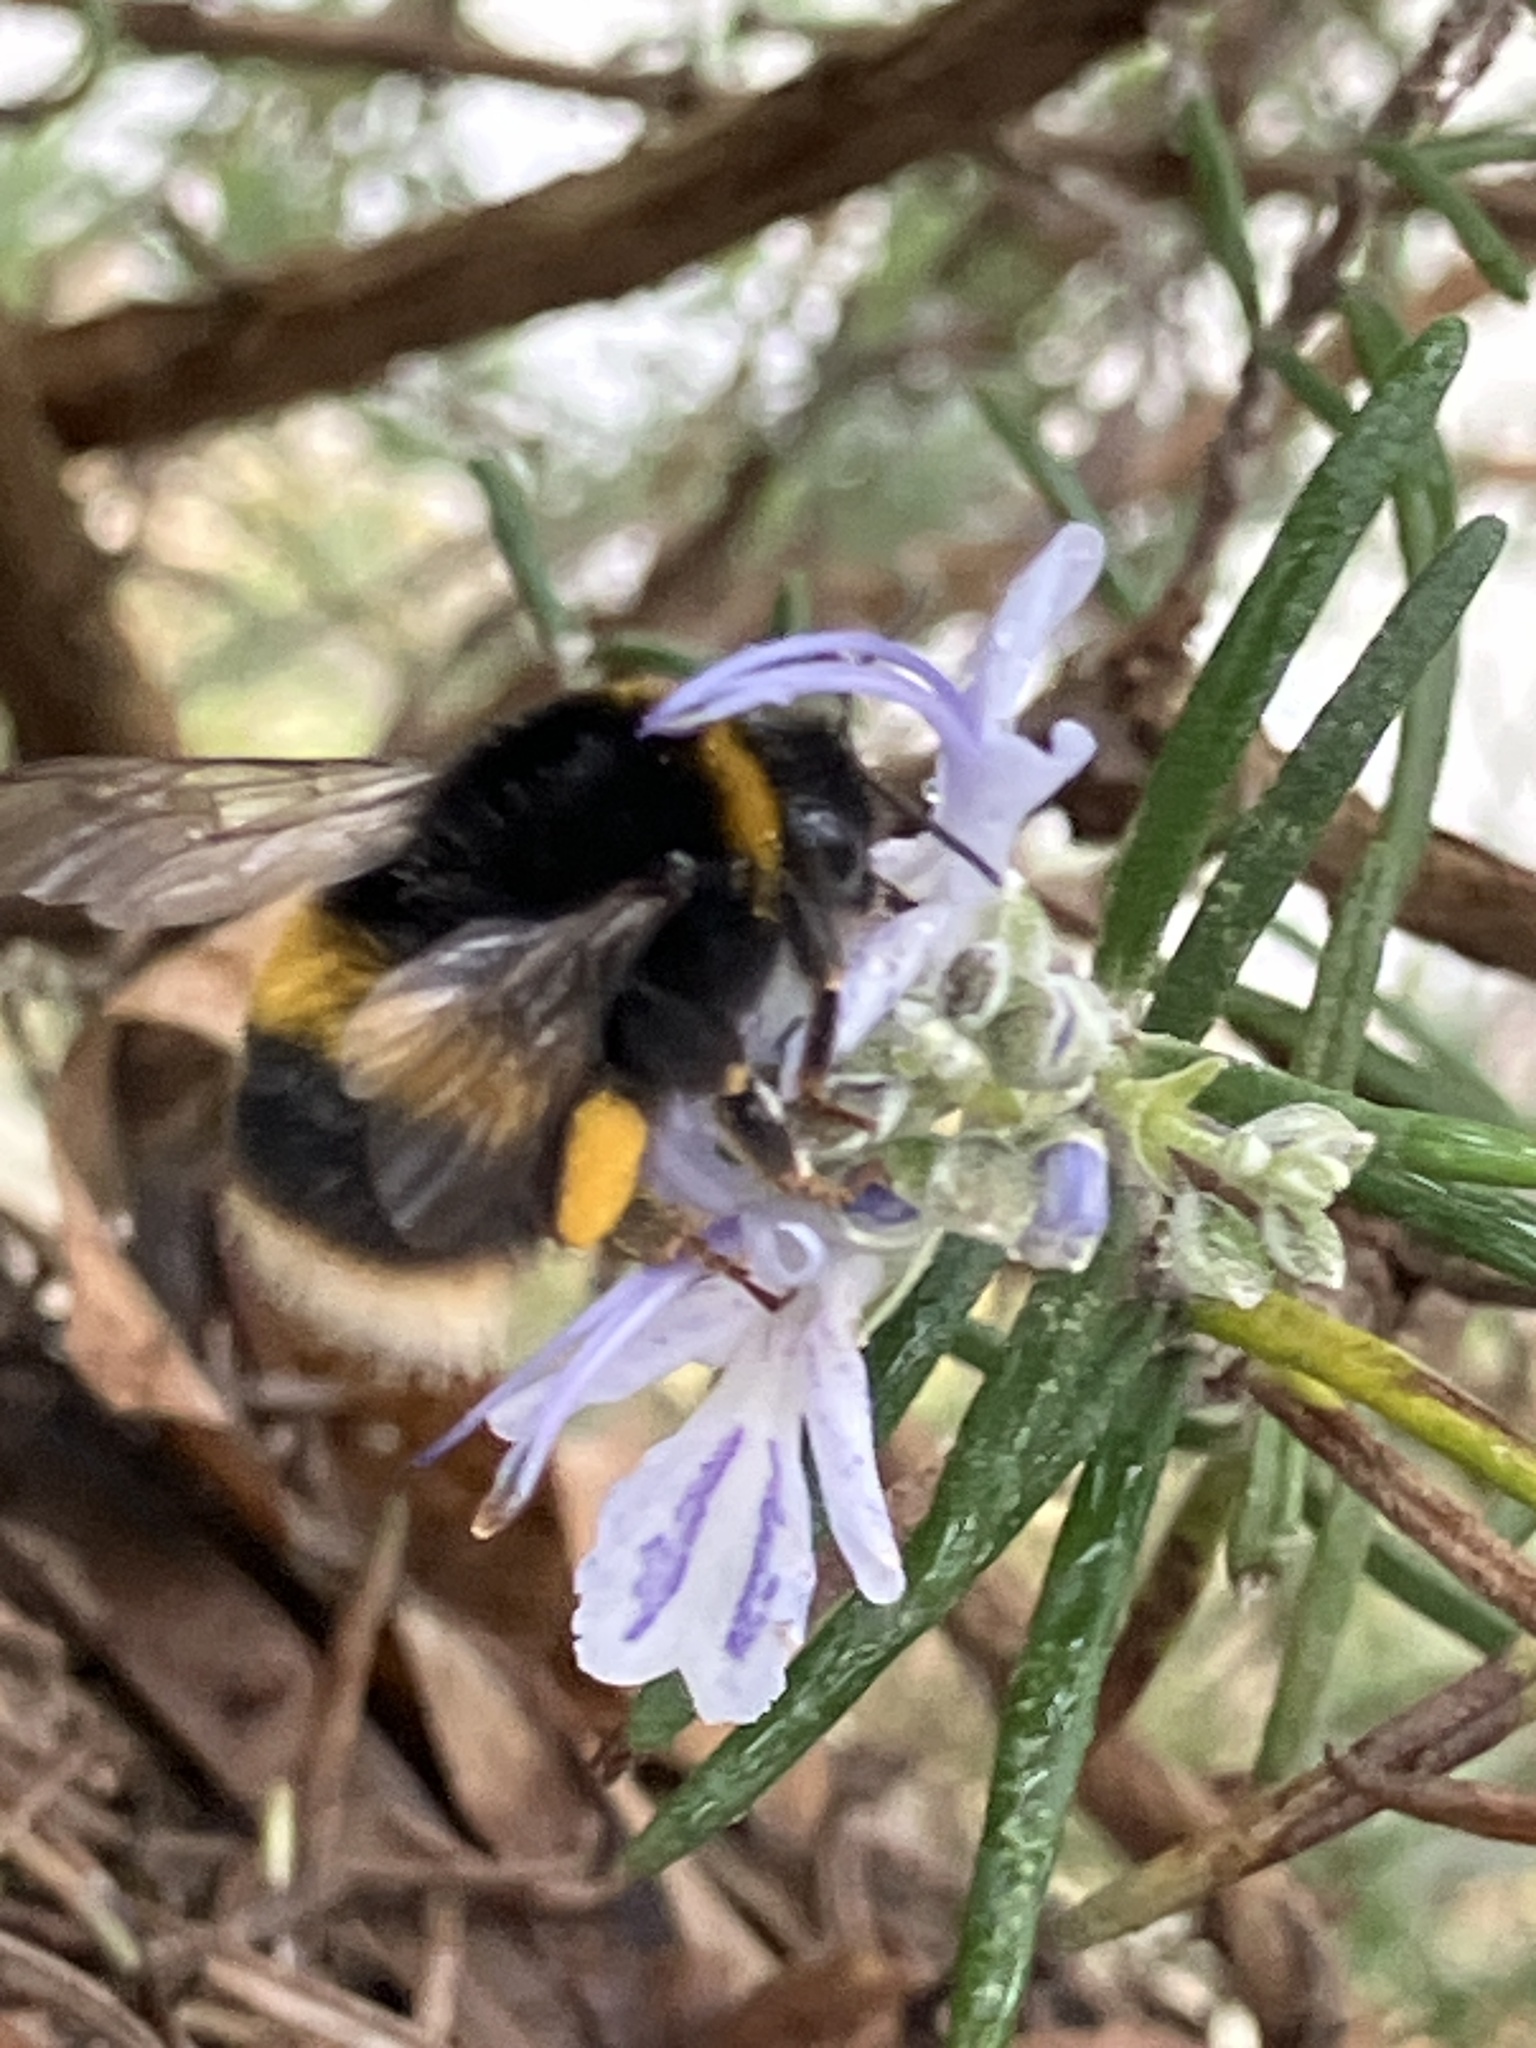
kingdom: Animalia
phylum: Arthropoda
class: Insecta
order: Hymenoptera
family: Apidae
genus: Bombus
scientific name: Bombus terrestris
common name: Buff-tailed bumblebee
